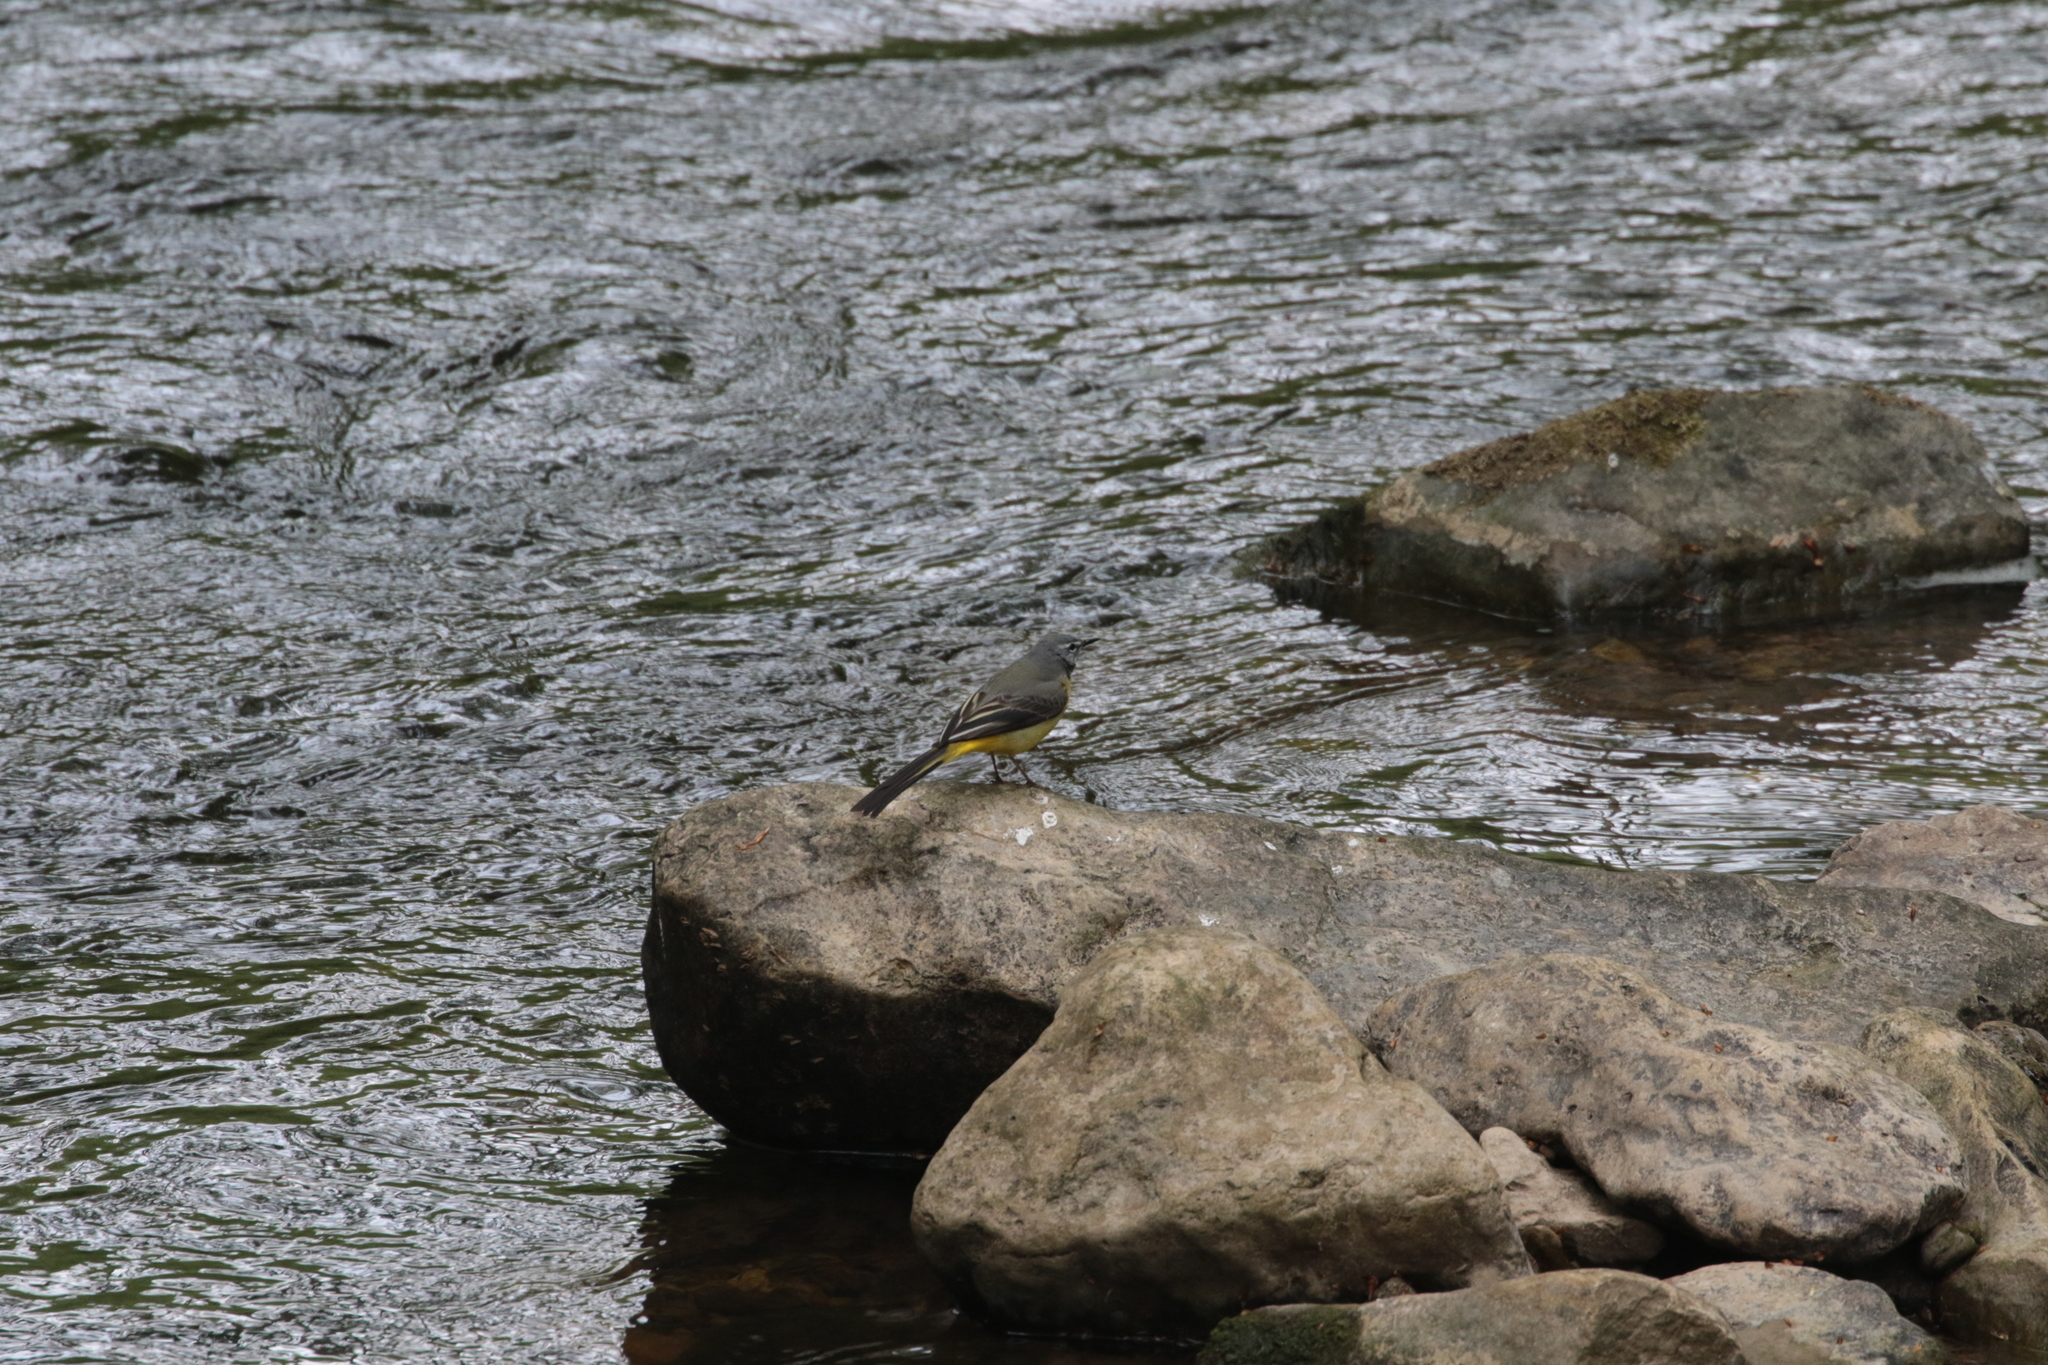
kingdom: Animalia
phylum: Chordata
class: Aves
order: Passeriformes
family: Motacillidae
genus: Motacilla
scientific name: Motacilla cinerea
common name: Grey wagtail
